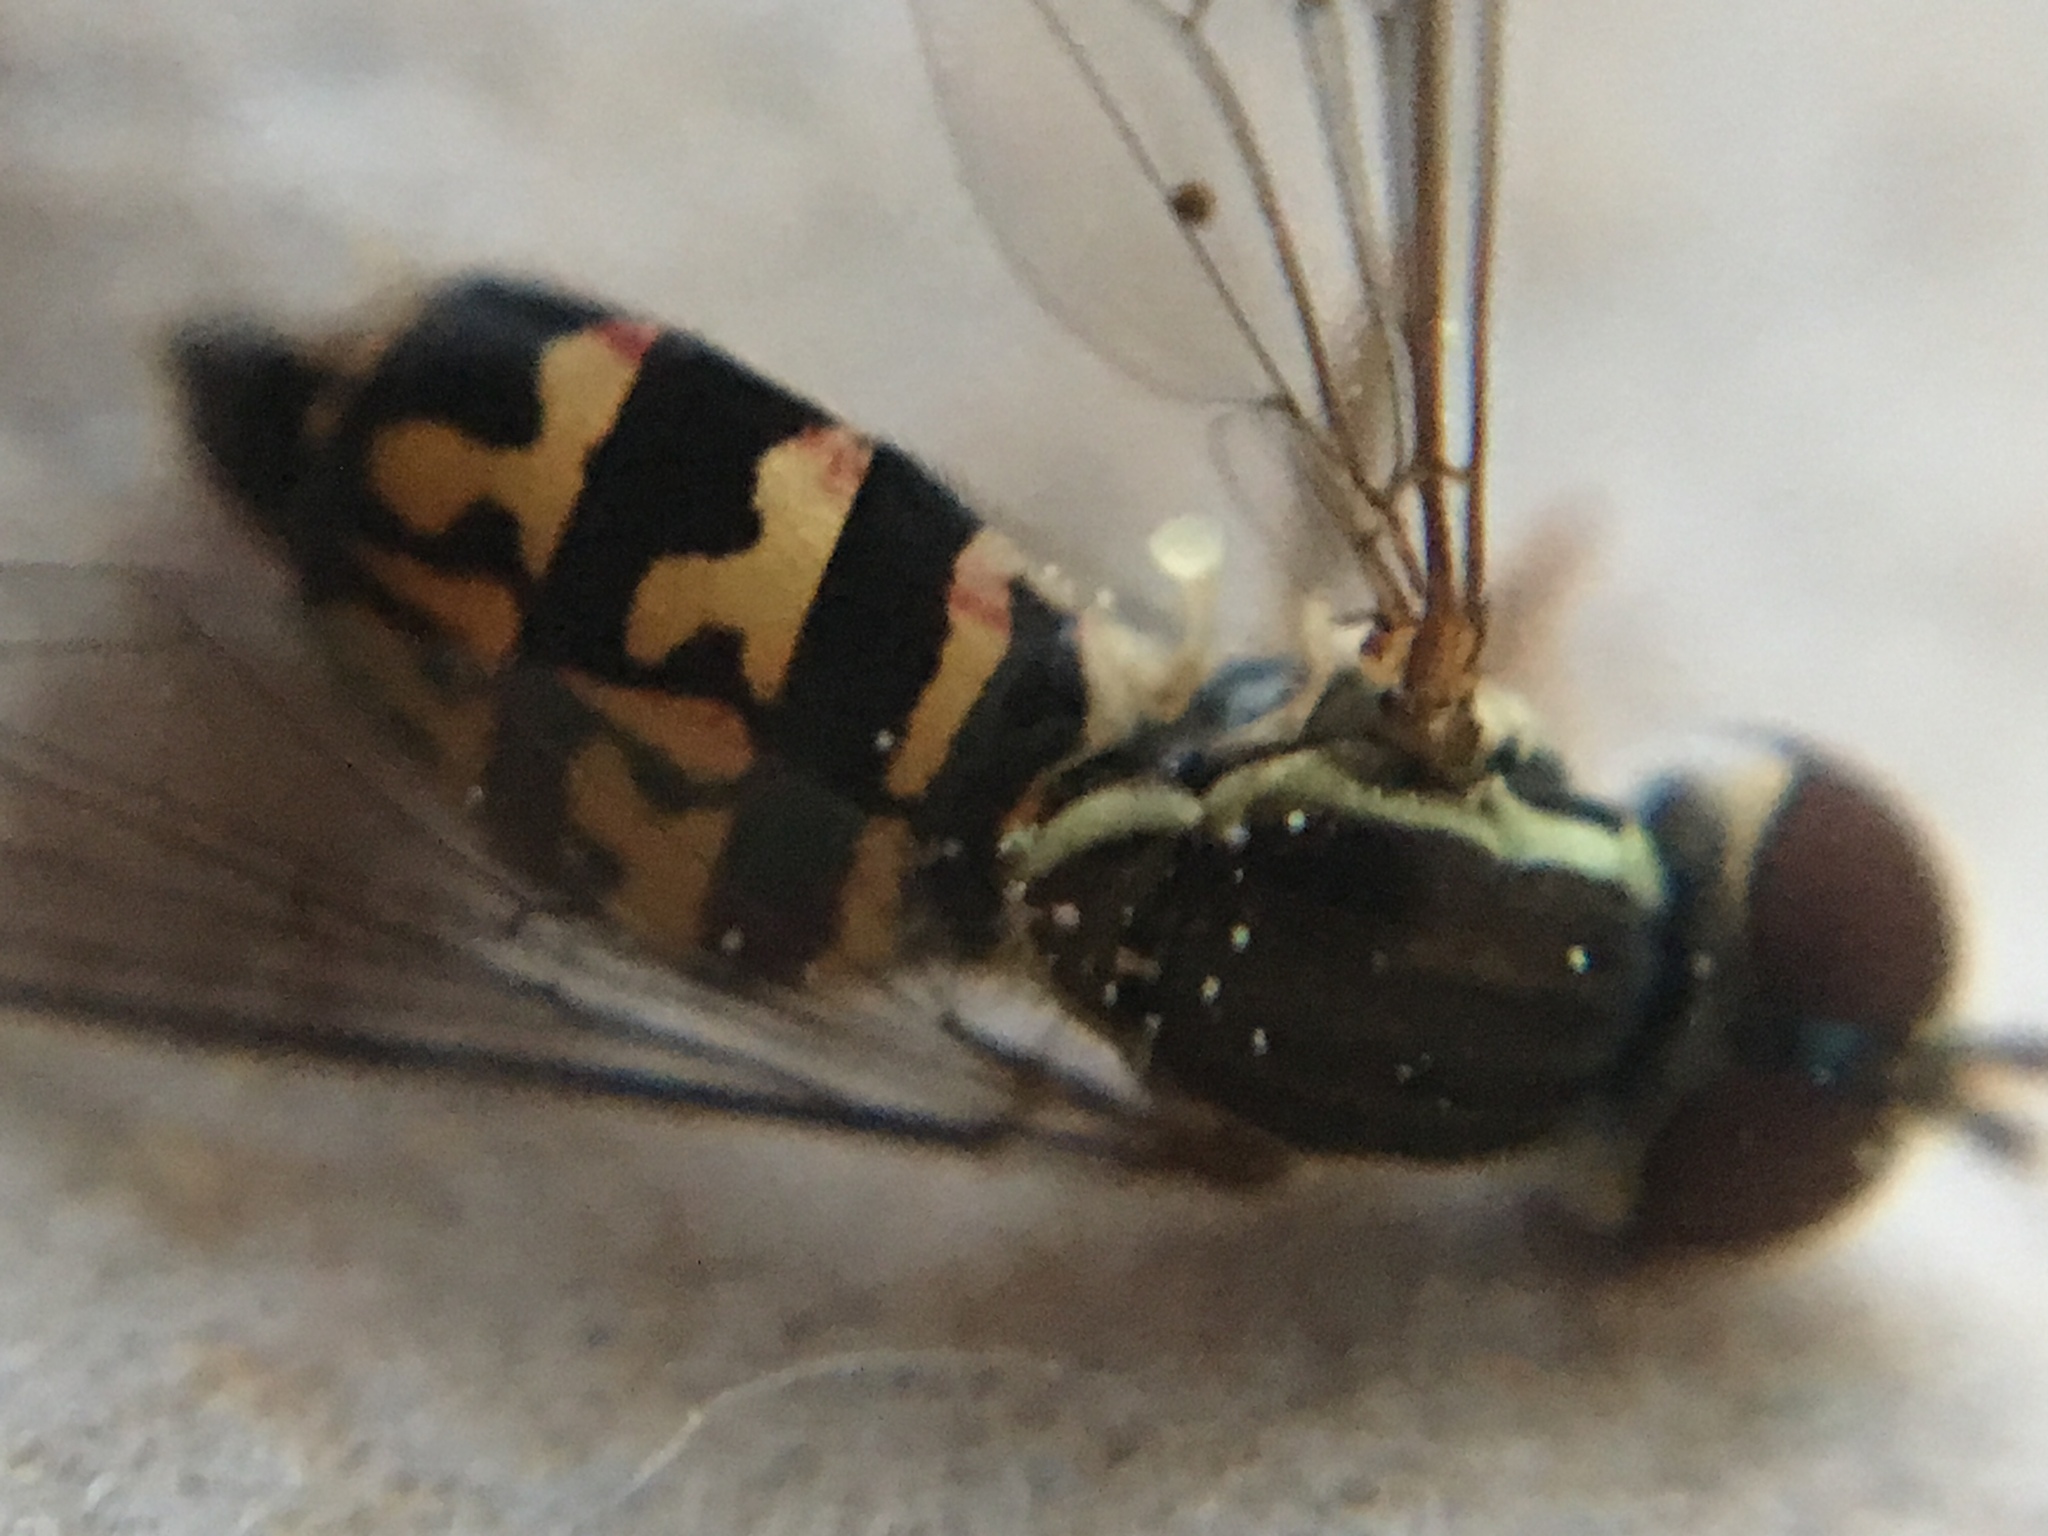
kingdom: Animalia
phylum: Arthropoda
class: Insecta
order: Diptera
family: Syrphidae
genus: Toxomerus
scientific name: Toxomerus geminatus
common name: Eastern calligrapher
